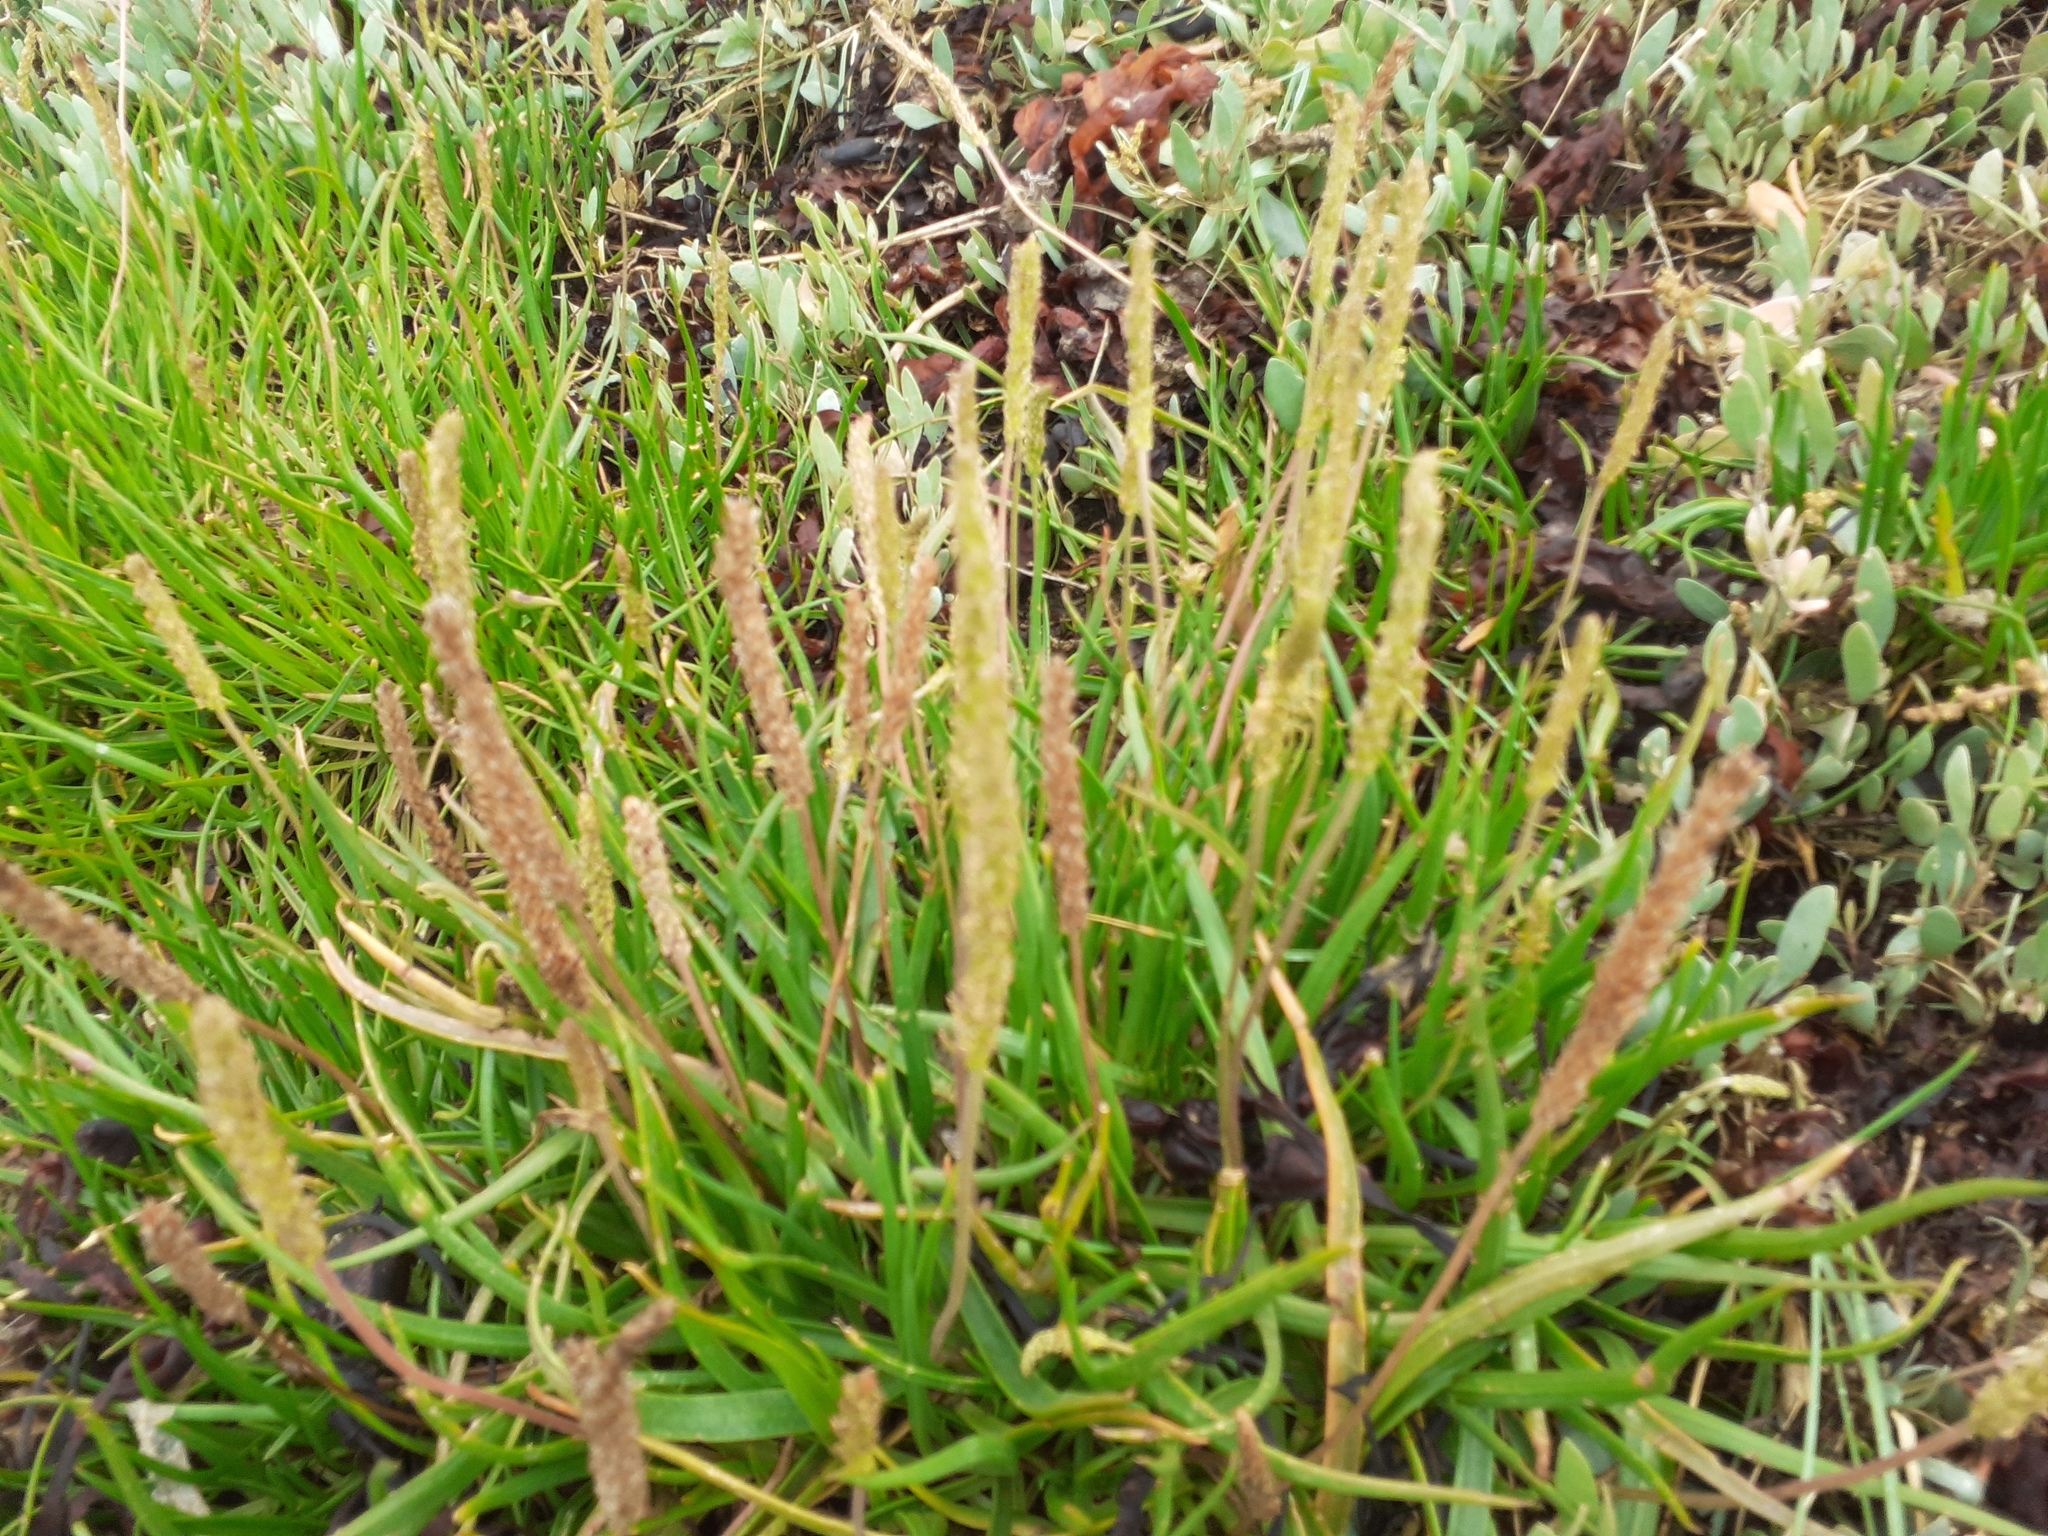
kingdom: Plantae
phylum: Tracheophyta
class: Magnoliopsida
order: Lamiales
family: Plantaginaceae
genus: Plantago
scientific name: Plantago maritima
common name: Sea plantain
